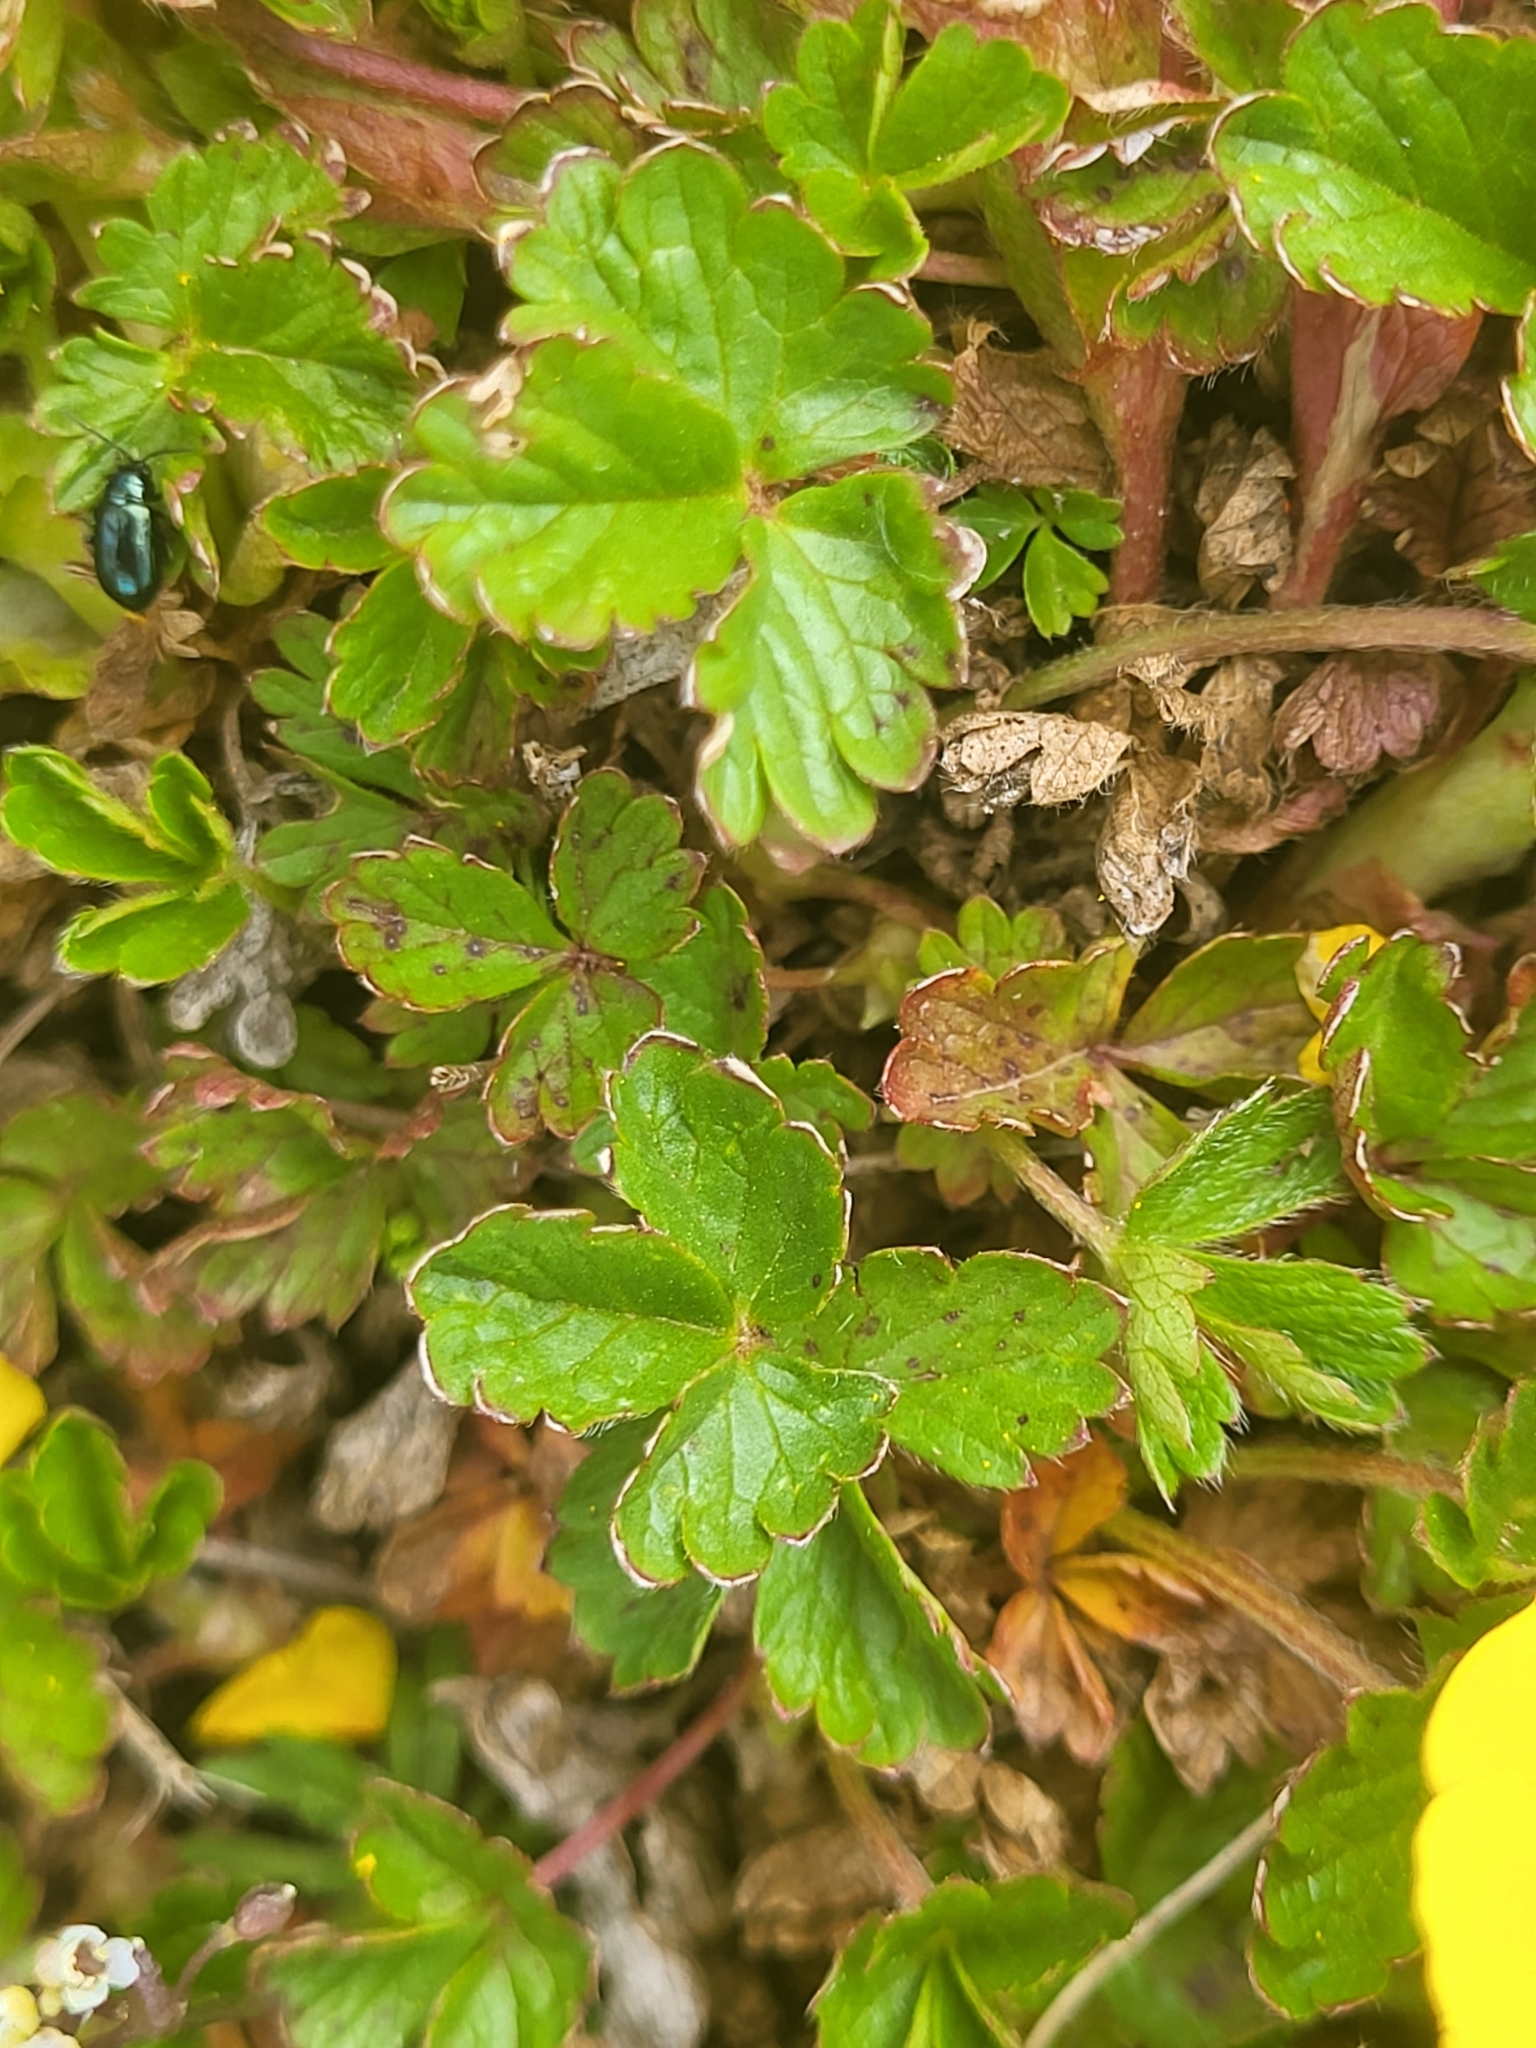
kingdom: Plantae
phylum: Tracheophyta
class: Magnoliopsida
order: Rosales
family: Rosaceae
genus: Potentilla
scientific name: Potentilla
